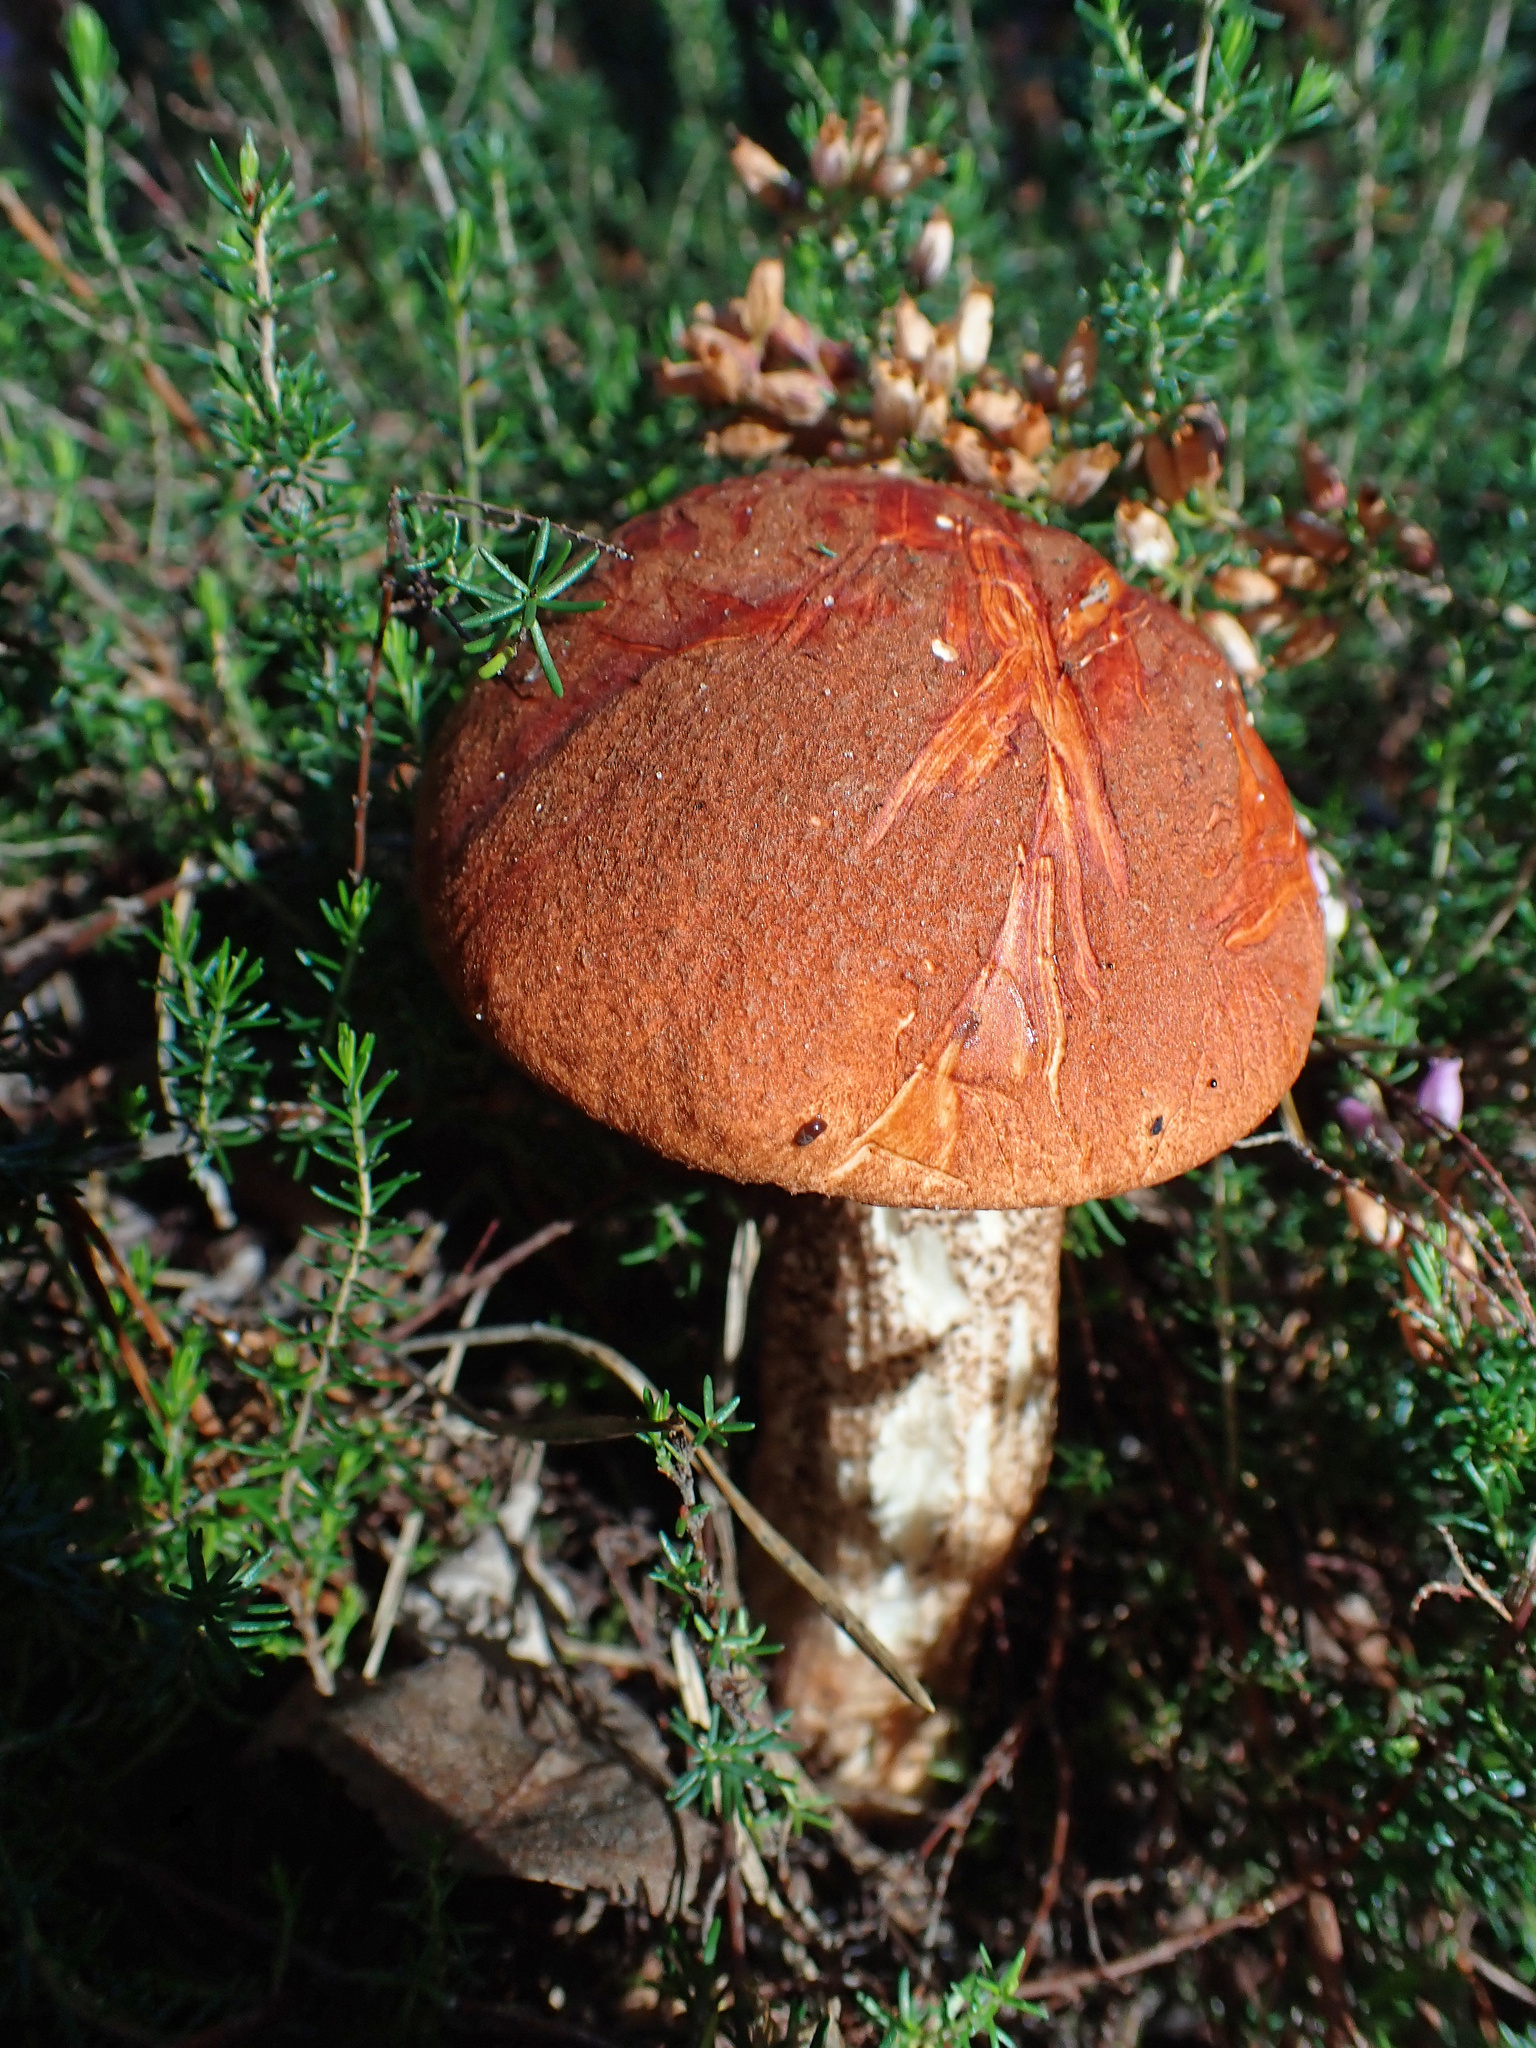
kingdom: Fungi
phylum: Basidiomycota
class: Agaricomycetes
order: Boletales
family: Boletaceae
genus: Leccinum
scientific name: Leccinum aurantiacum
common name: Orange bolete
